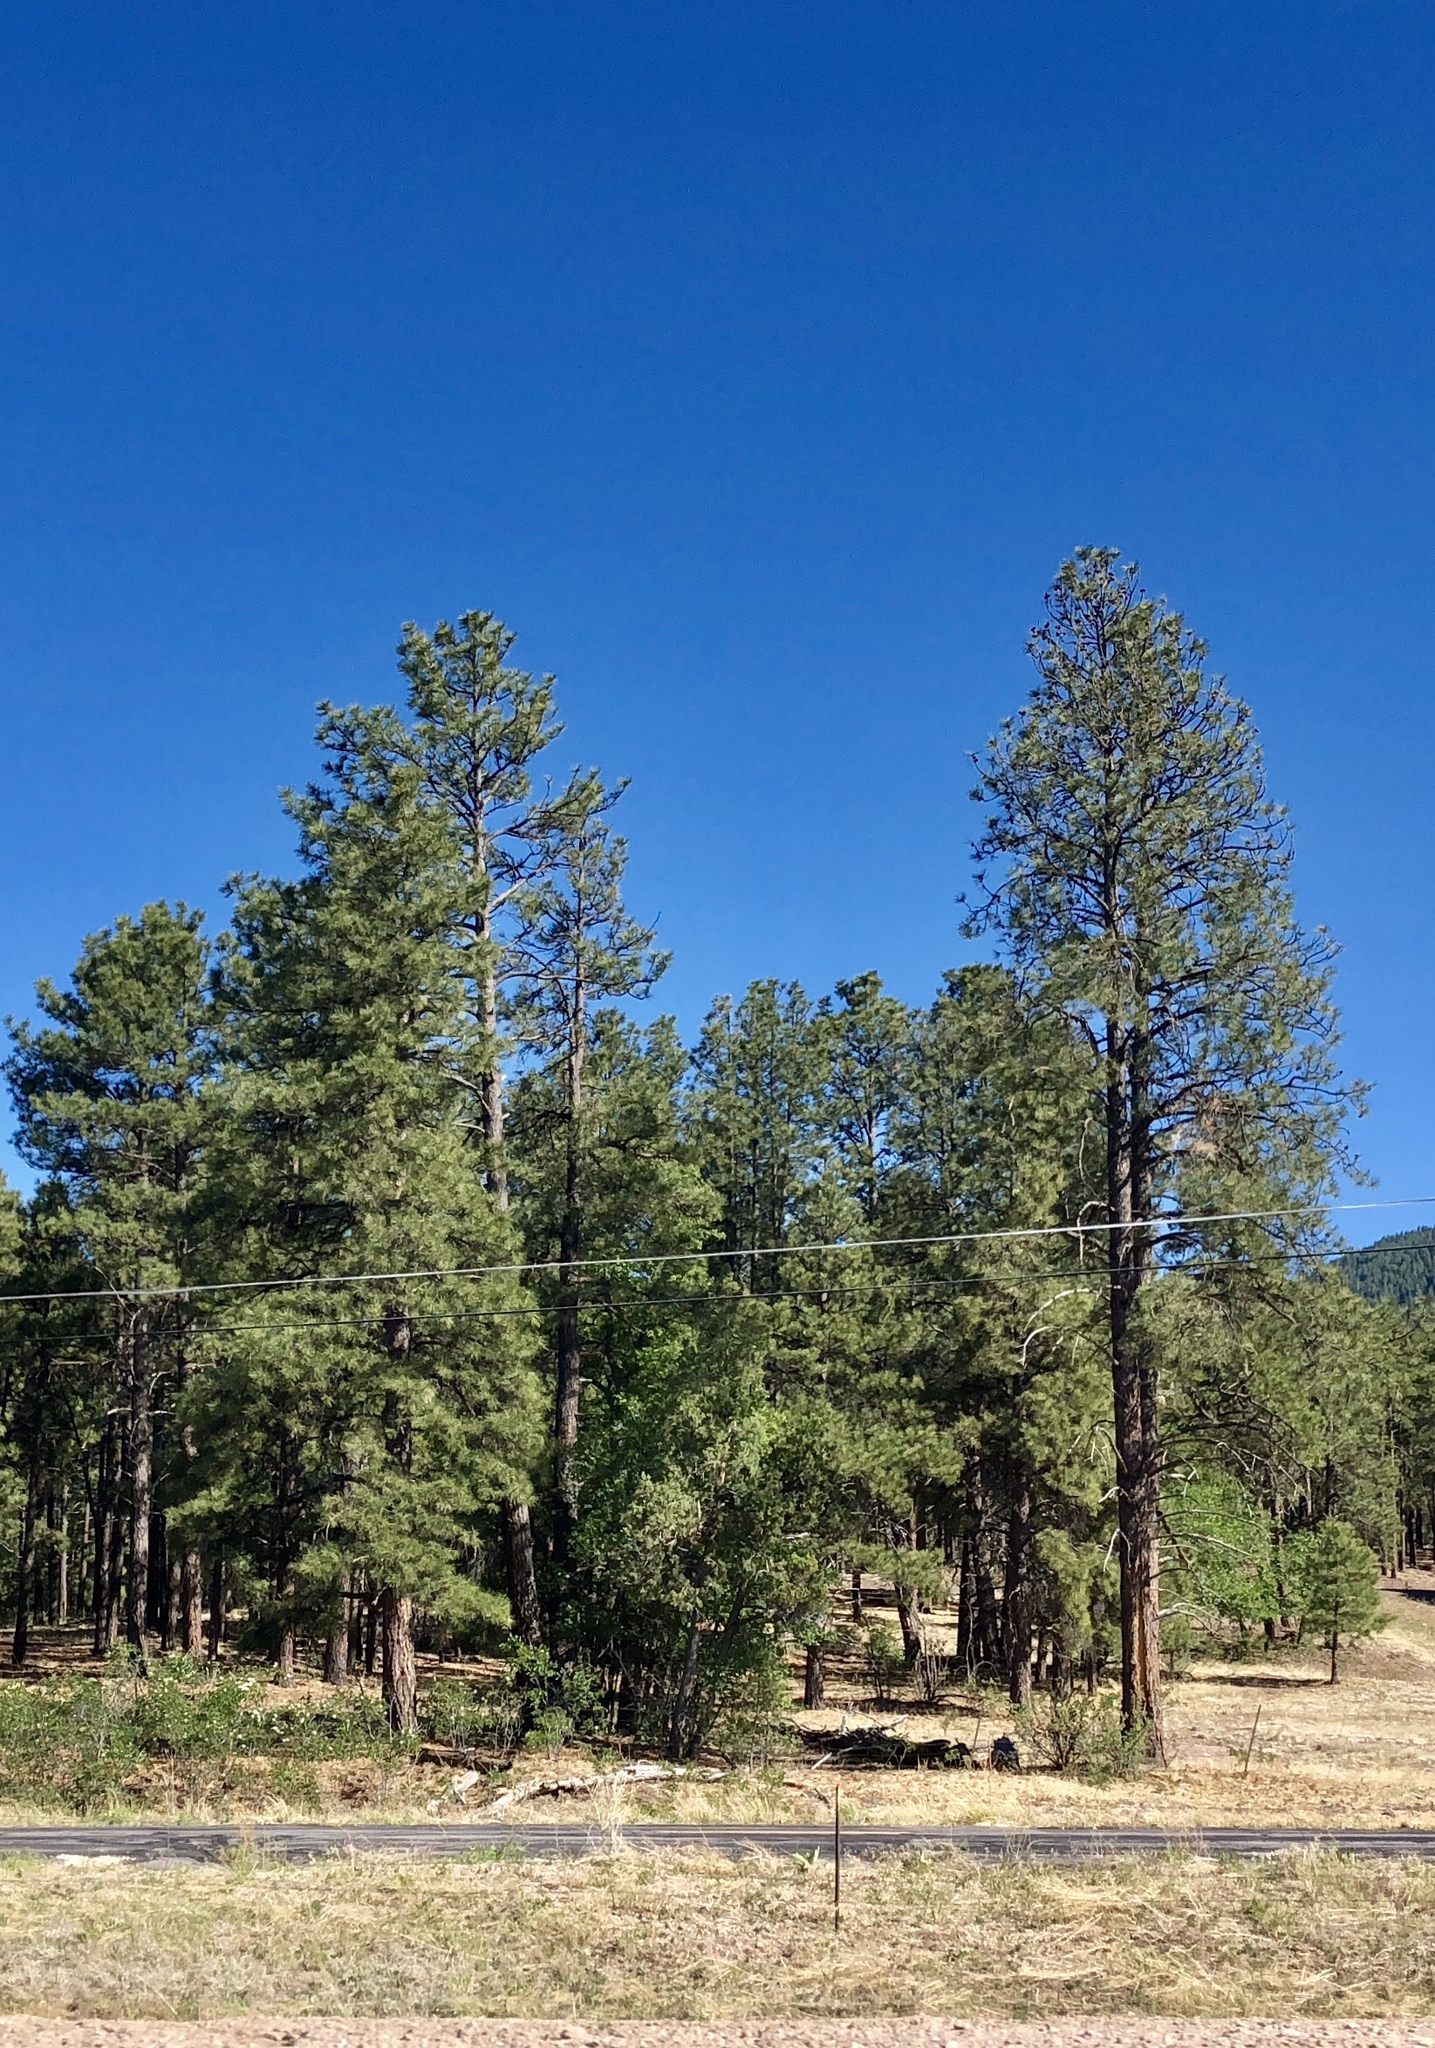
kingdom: Plantae
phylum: Tracheophyta
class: Pinopsida
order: Pinales
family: Pinaceae
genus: Pinus
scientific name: Pinus ponderosa
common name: Western yellow-pine
